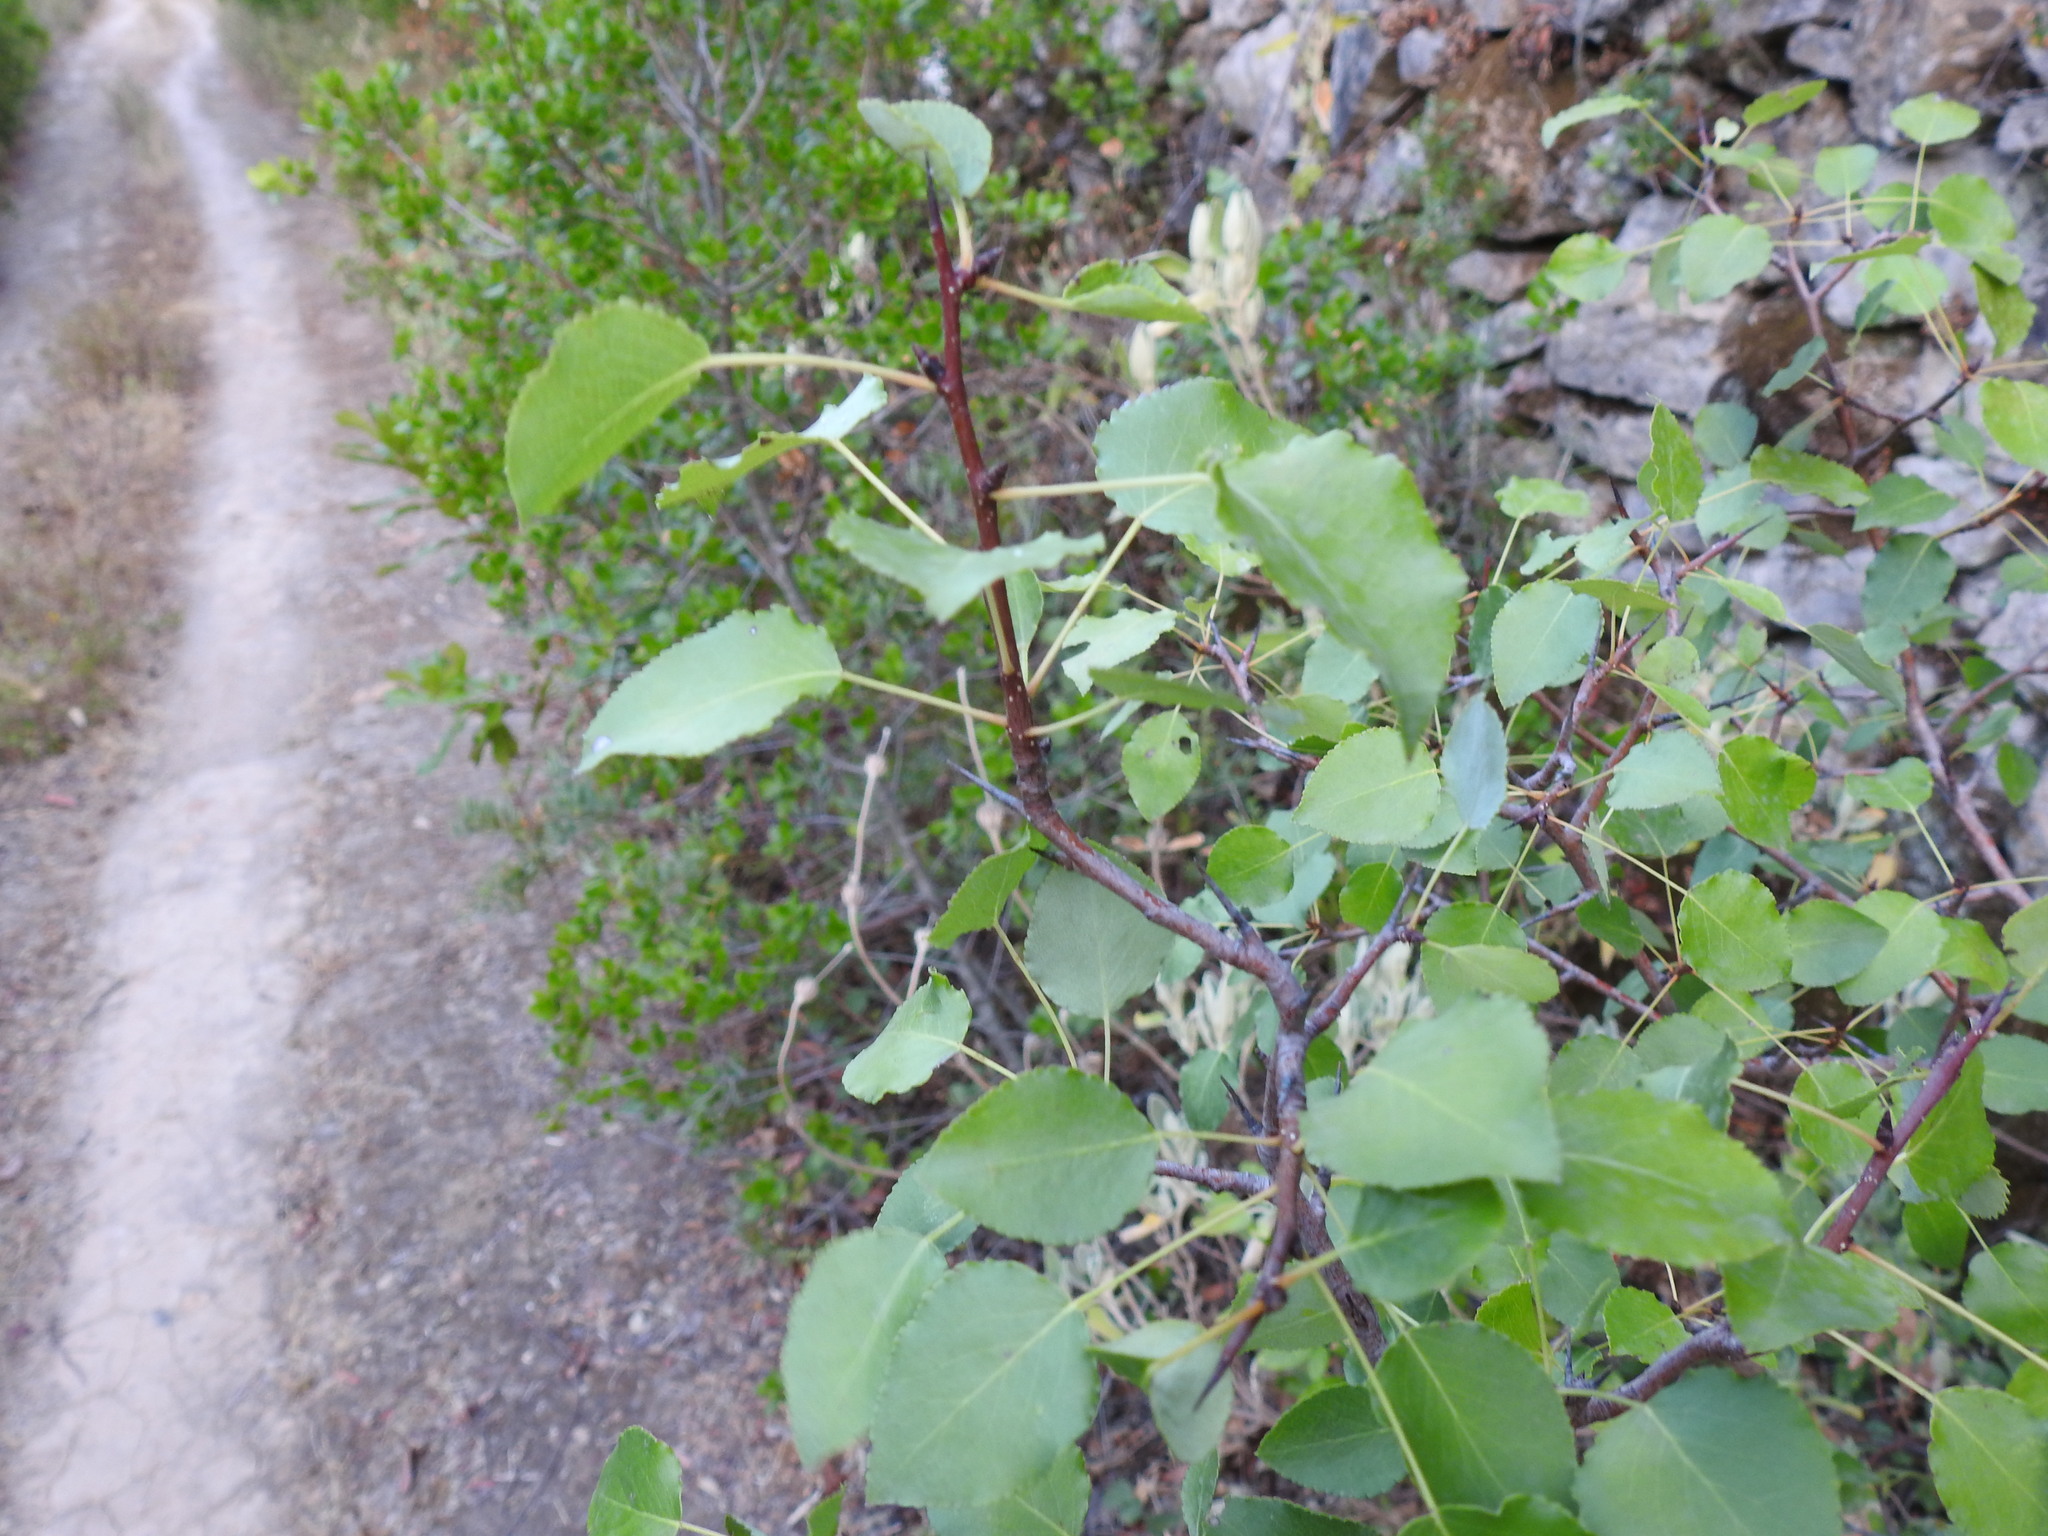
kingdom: Plantae
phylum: Tracheophyta
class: Magnoliopsida
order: Rosales
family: Rosaceae
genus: Pyrus
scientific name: Pyrus bourgaeana
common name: Iberian pear
